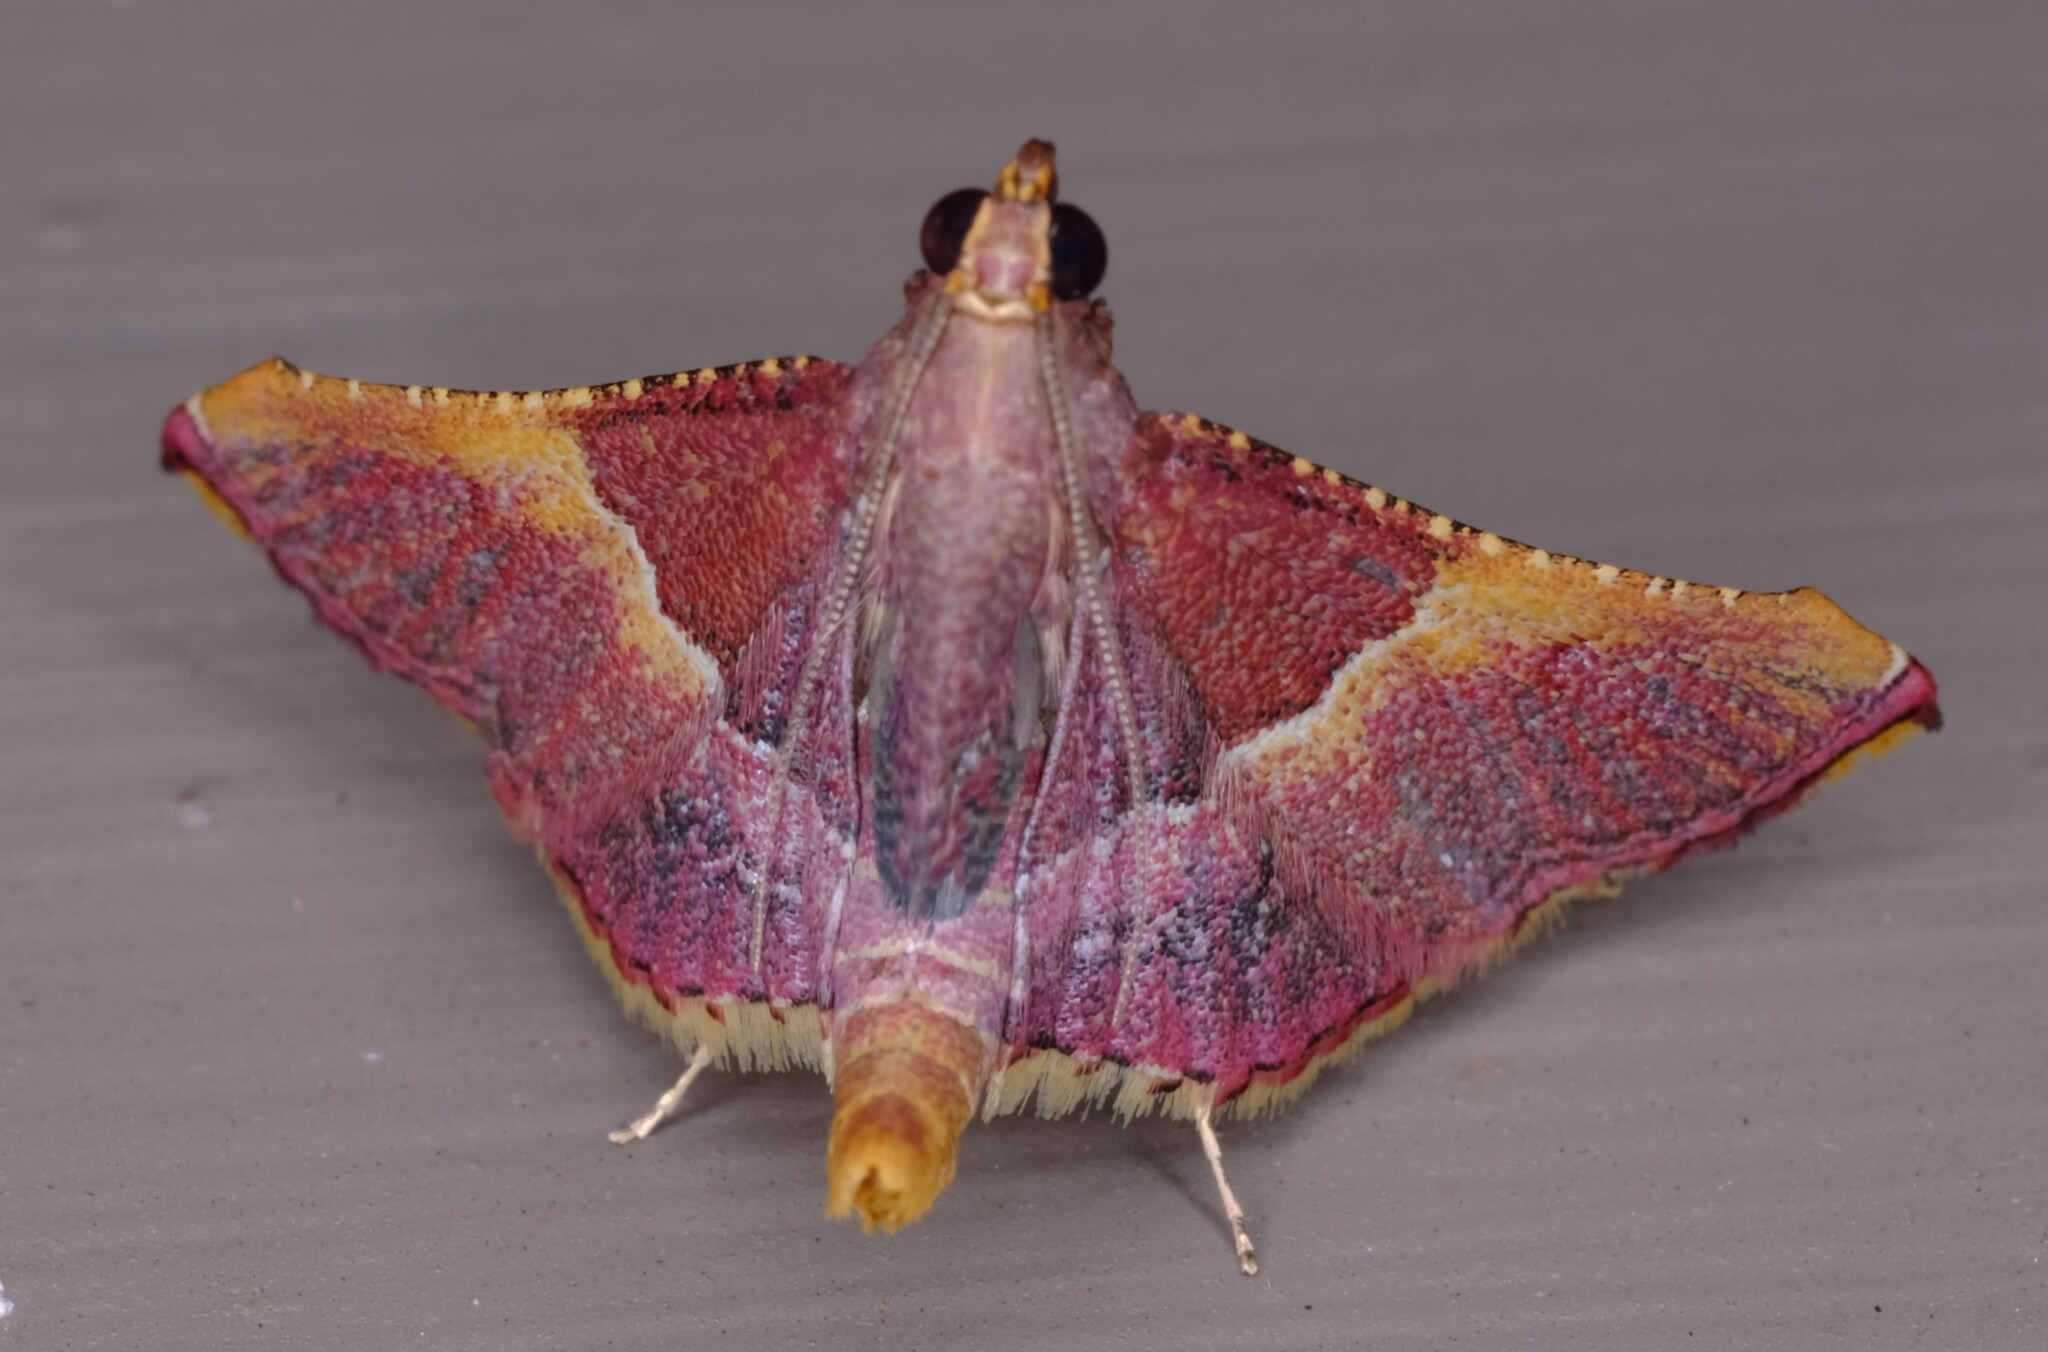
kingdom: Animalia
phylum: Arthropoda
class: Insecta
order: Lepidoptera
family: Pyralidae
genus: Endotricha
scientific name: Endotricha mesenterialis
